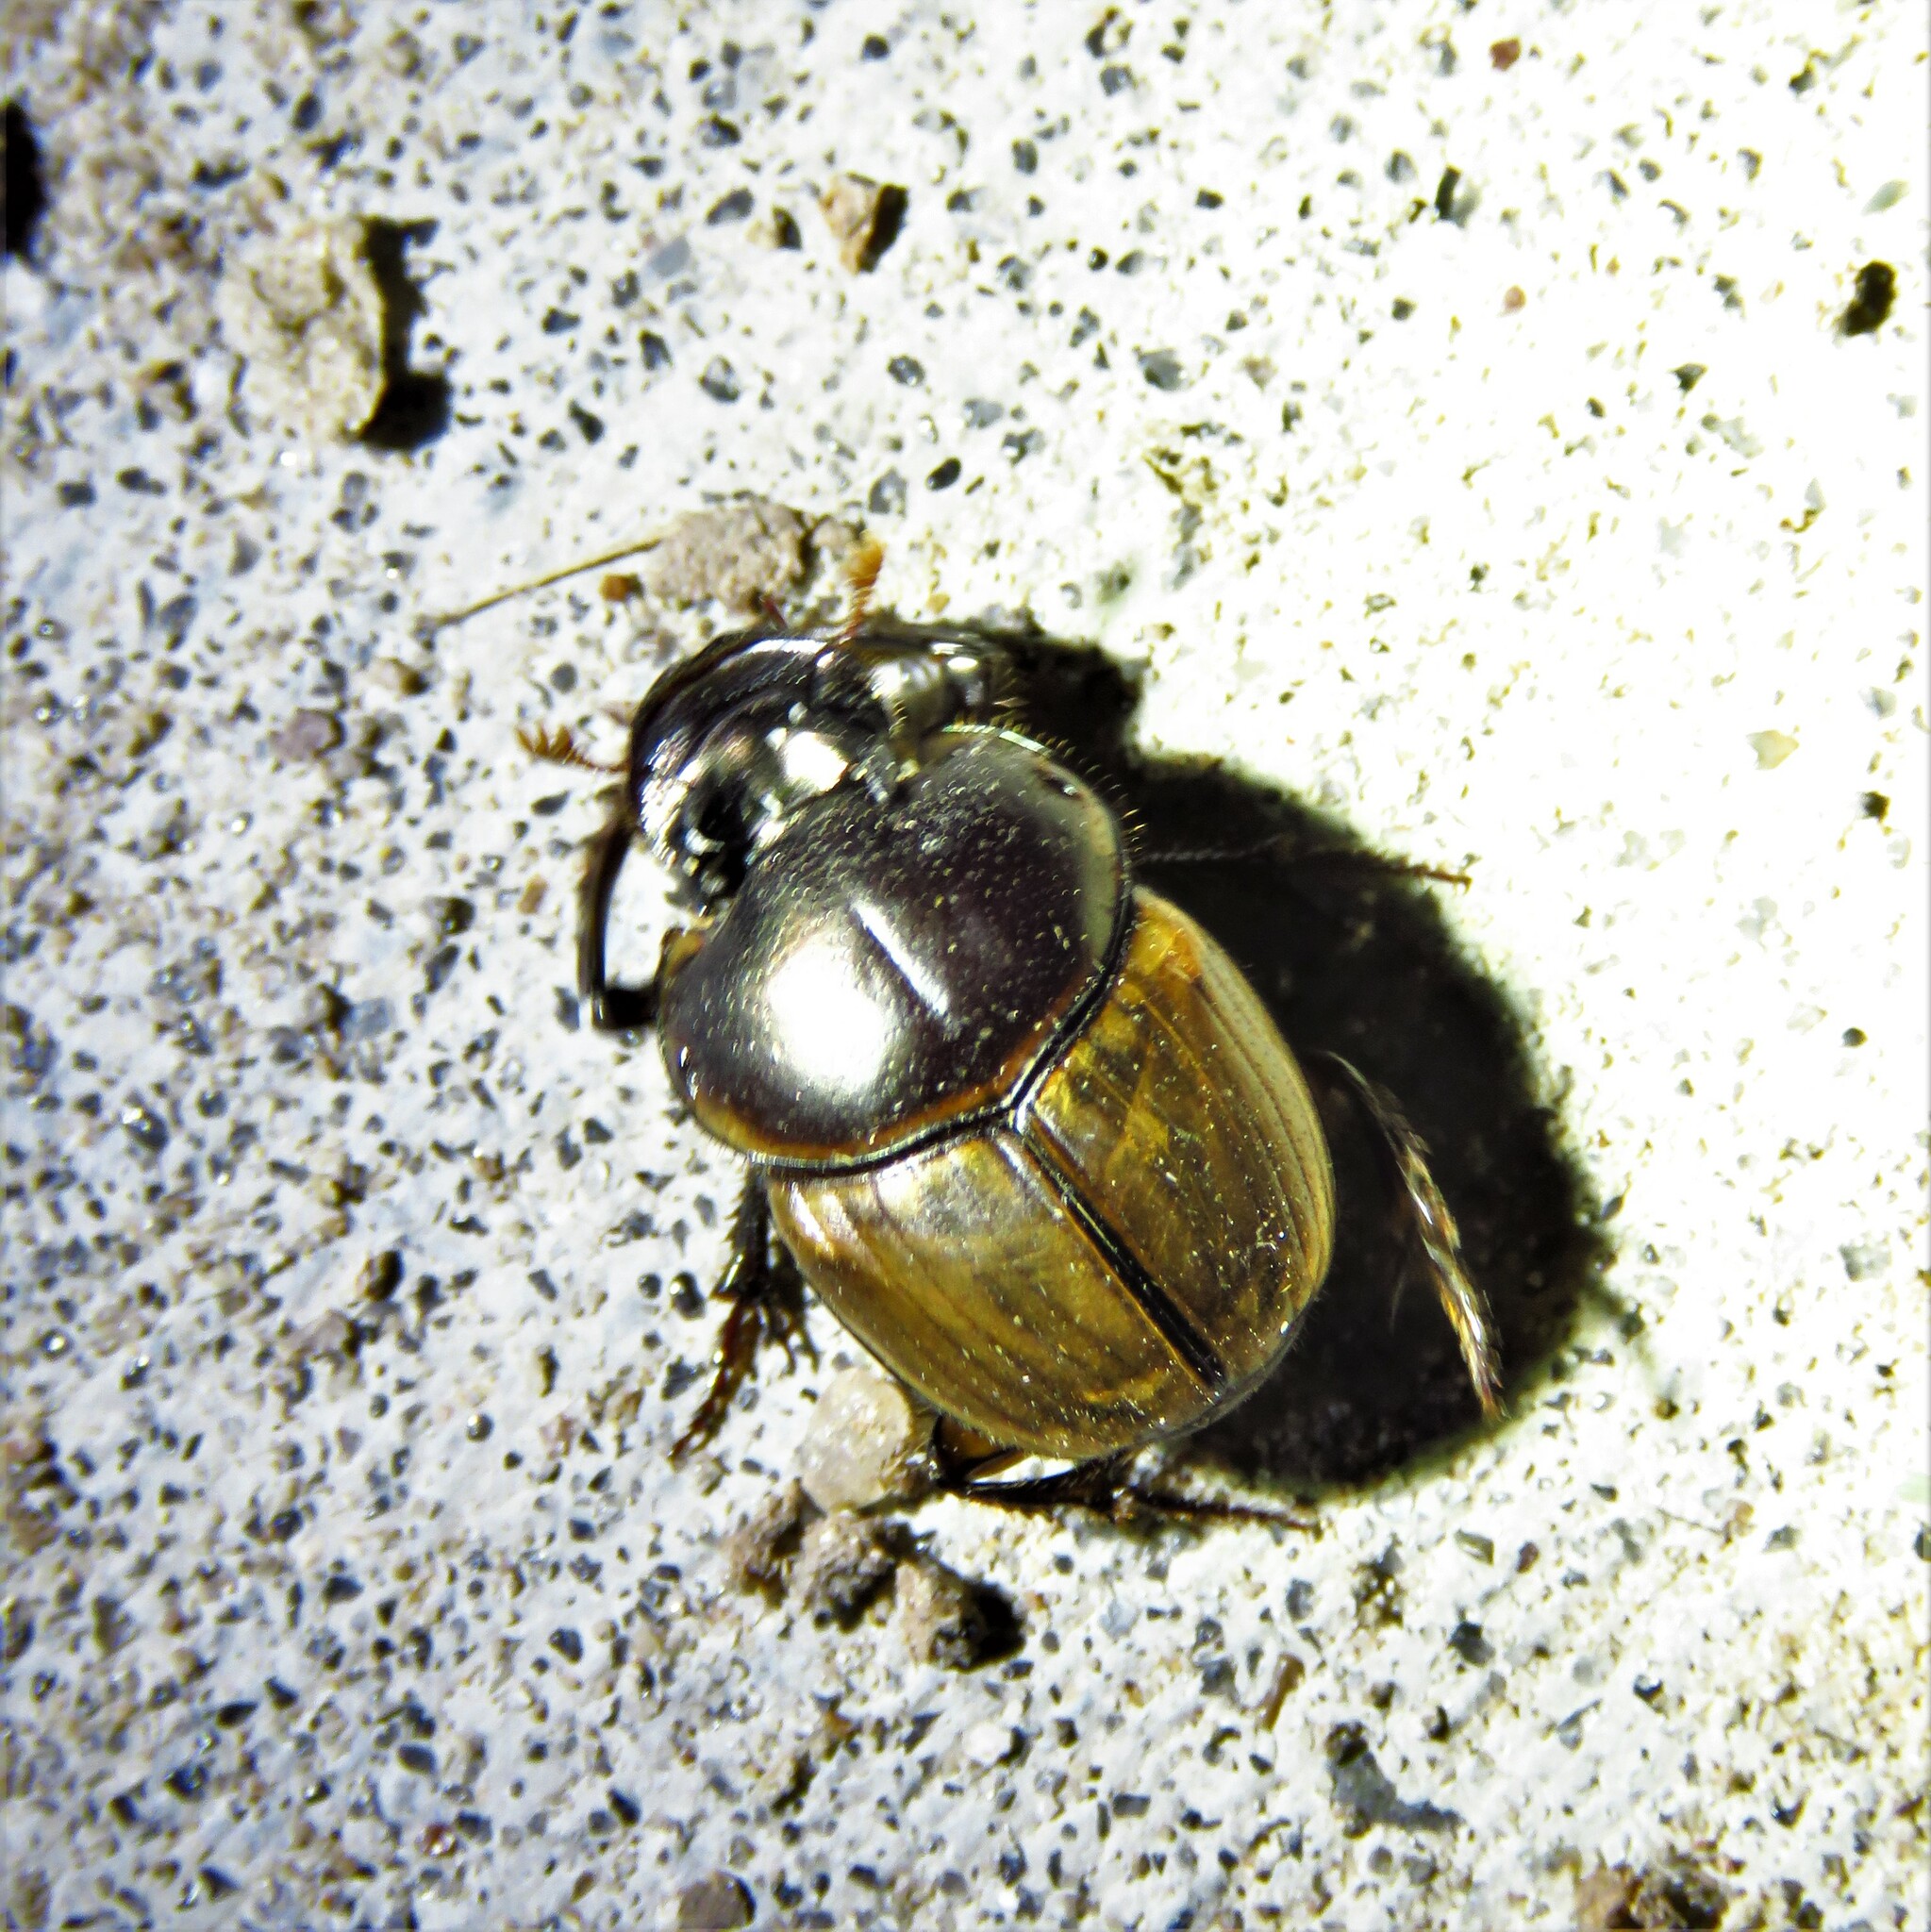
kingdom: Animalia
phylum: Arthropoda
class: Insecta
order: Coleoptera
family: Scarabaeidae
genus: Digitonthophagus
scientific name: Digitonthophagus gazella
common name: Brown dung beetle
